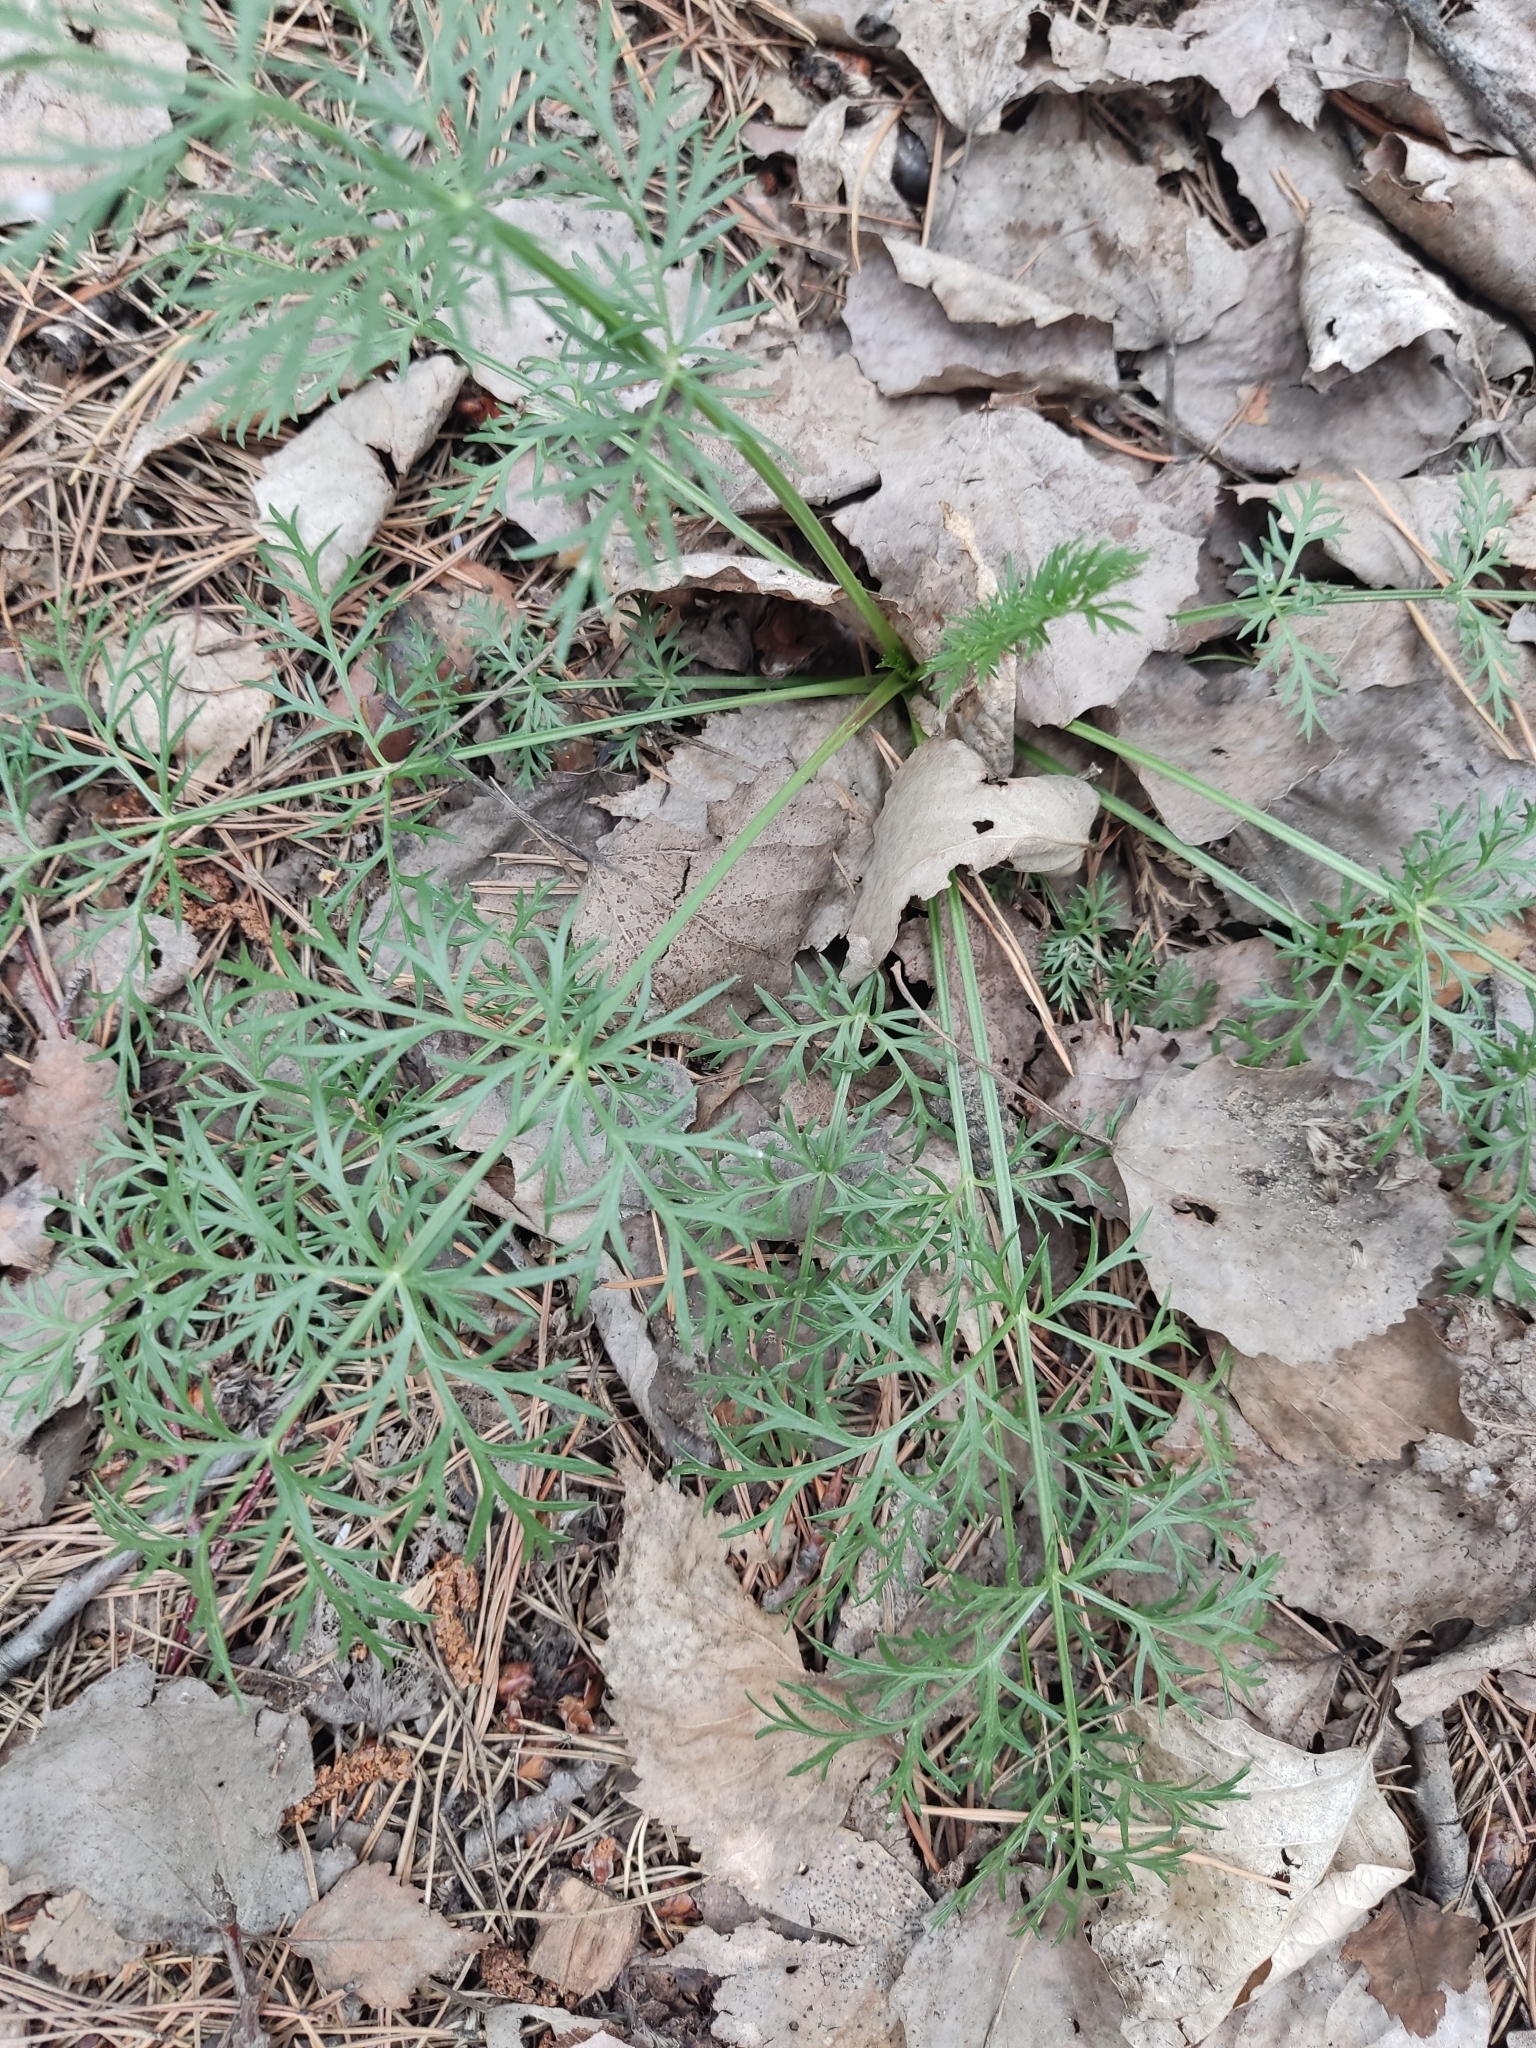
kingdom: Plantae
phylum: Tracheophyta
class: Magnoliopsida
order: Apiales
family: Apiaceae
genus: Kitagawia
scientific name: Kitagawia baicalensis
